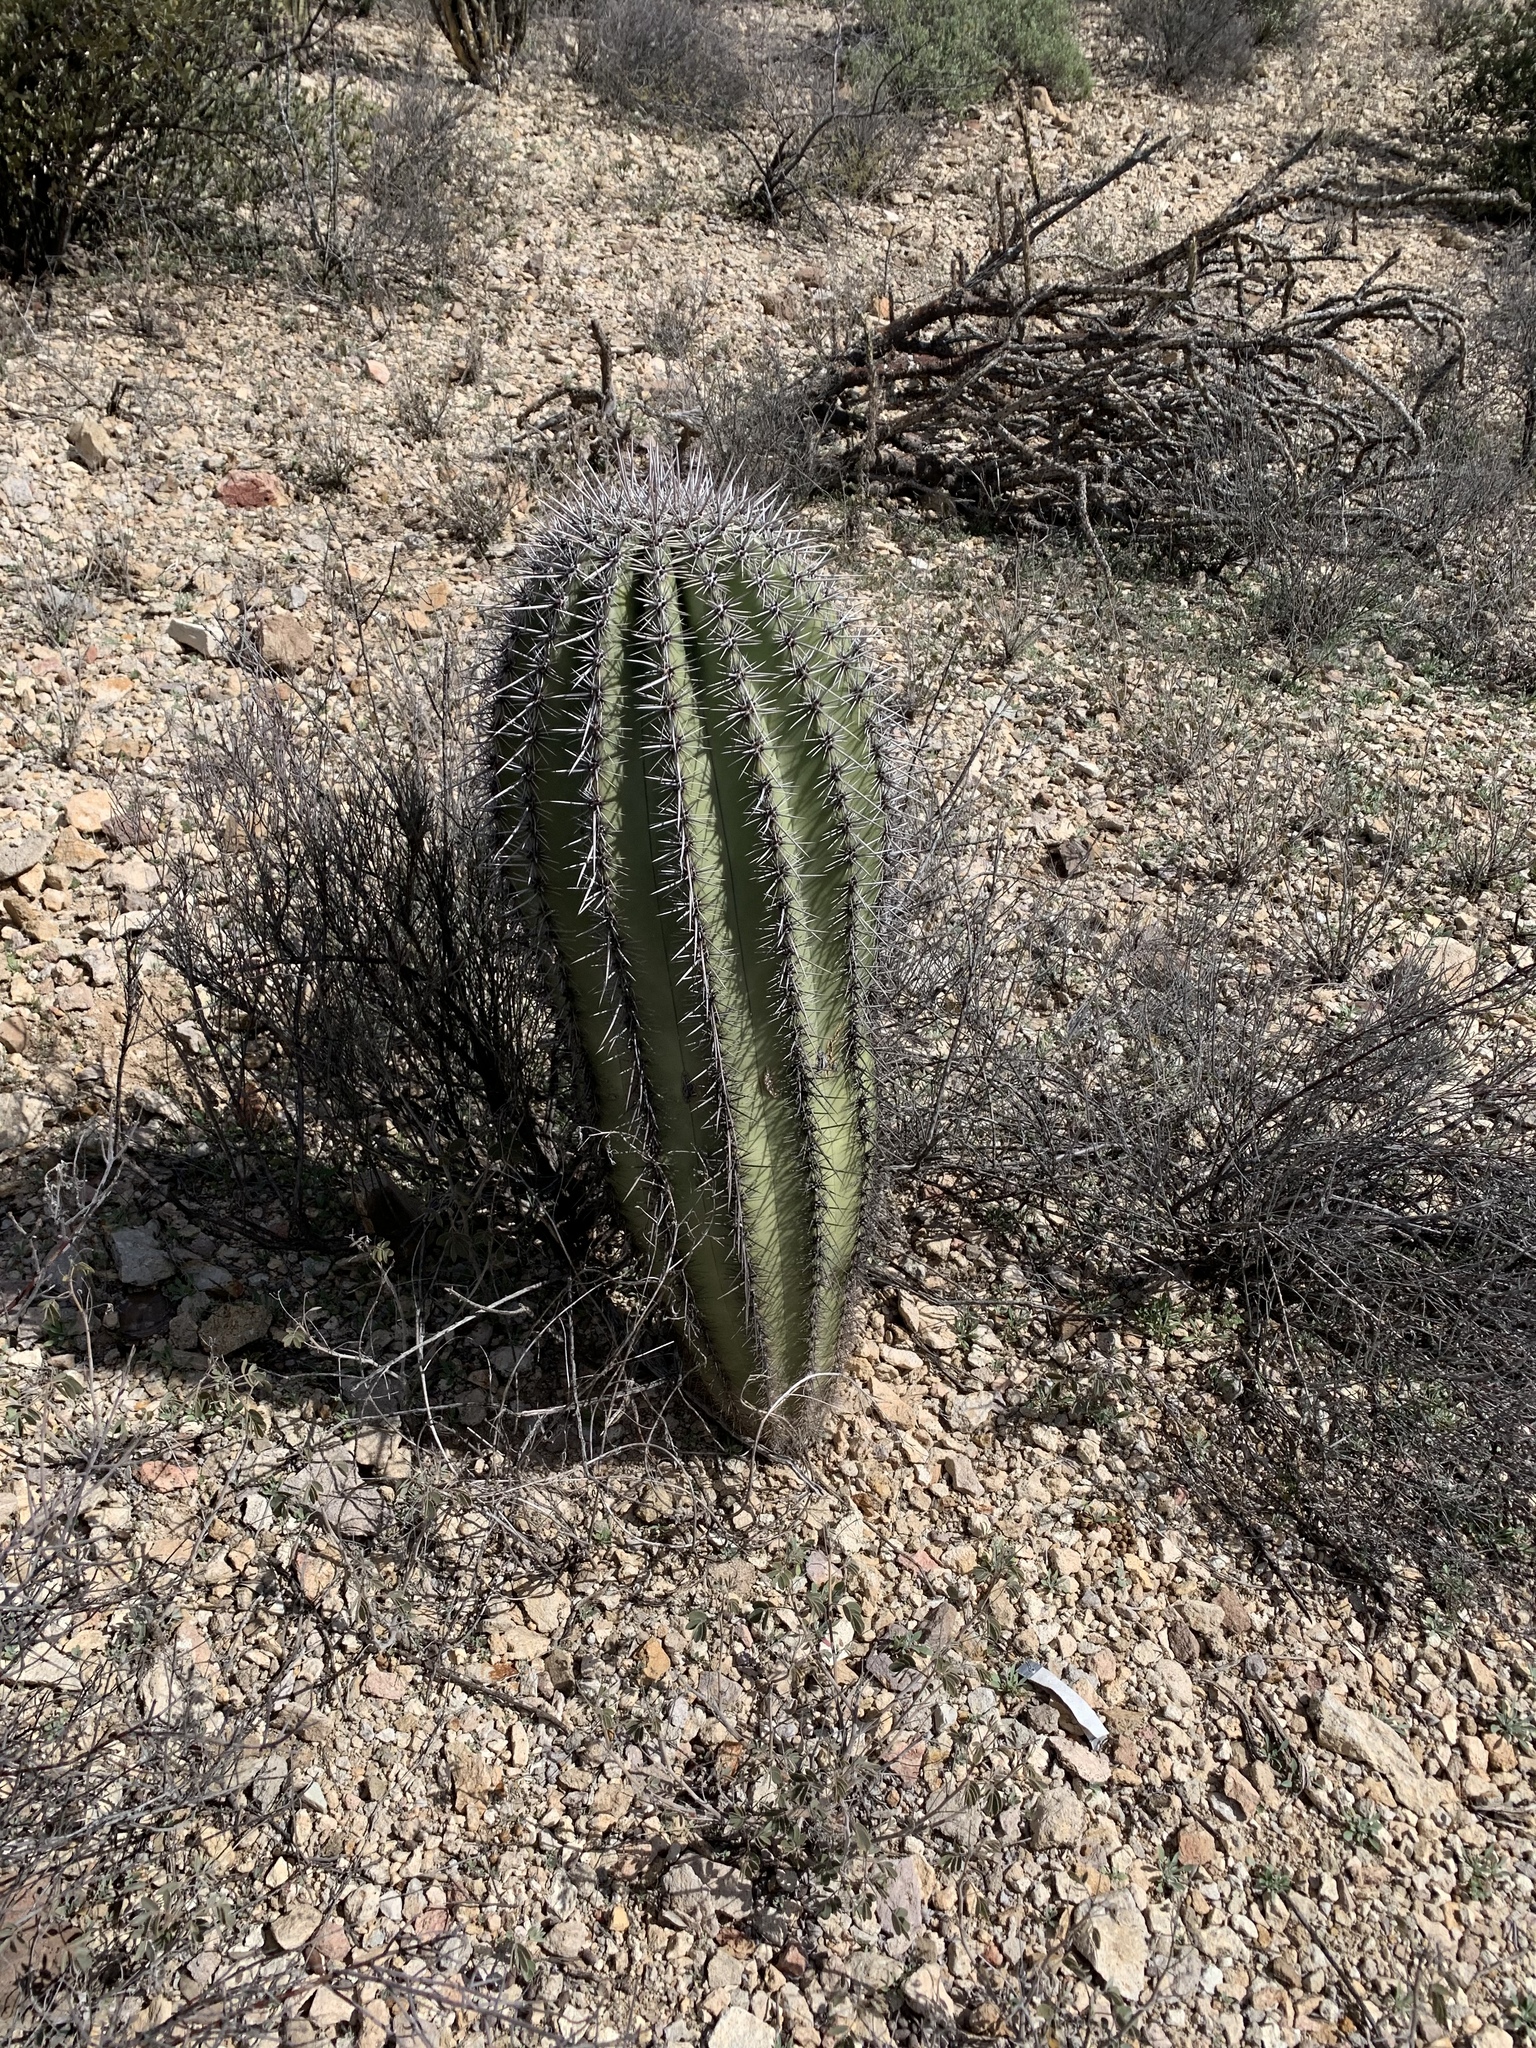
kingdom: Plantae
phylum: Tracheophyta
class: Magnoliopsida
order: Caryophyllales
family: Cactaceae
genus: Carnegiea
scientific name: Carnegiea gigantea
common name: Saguaro
